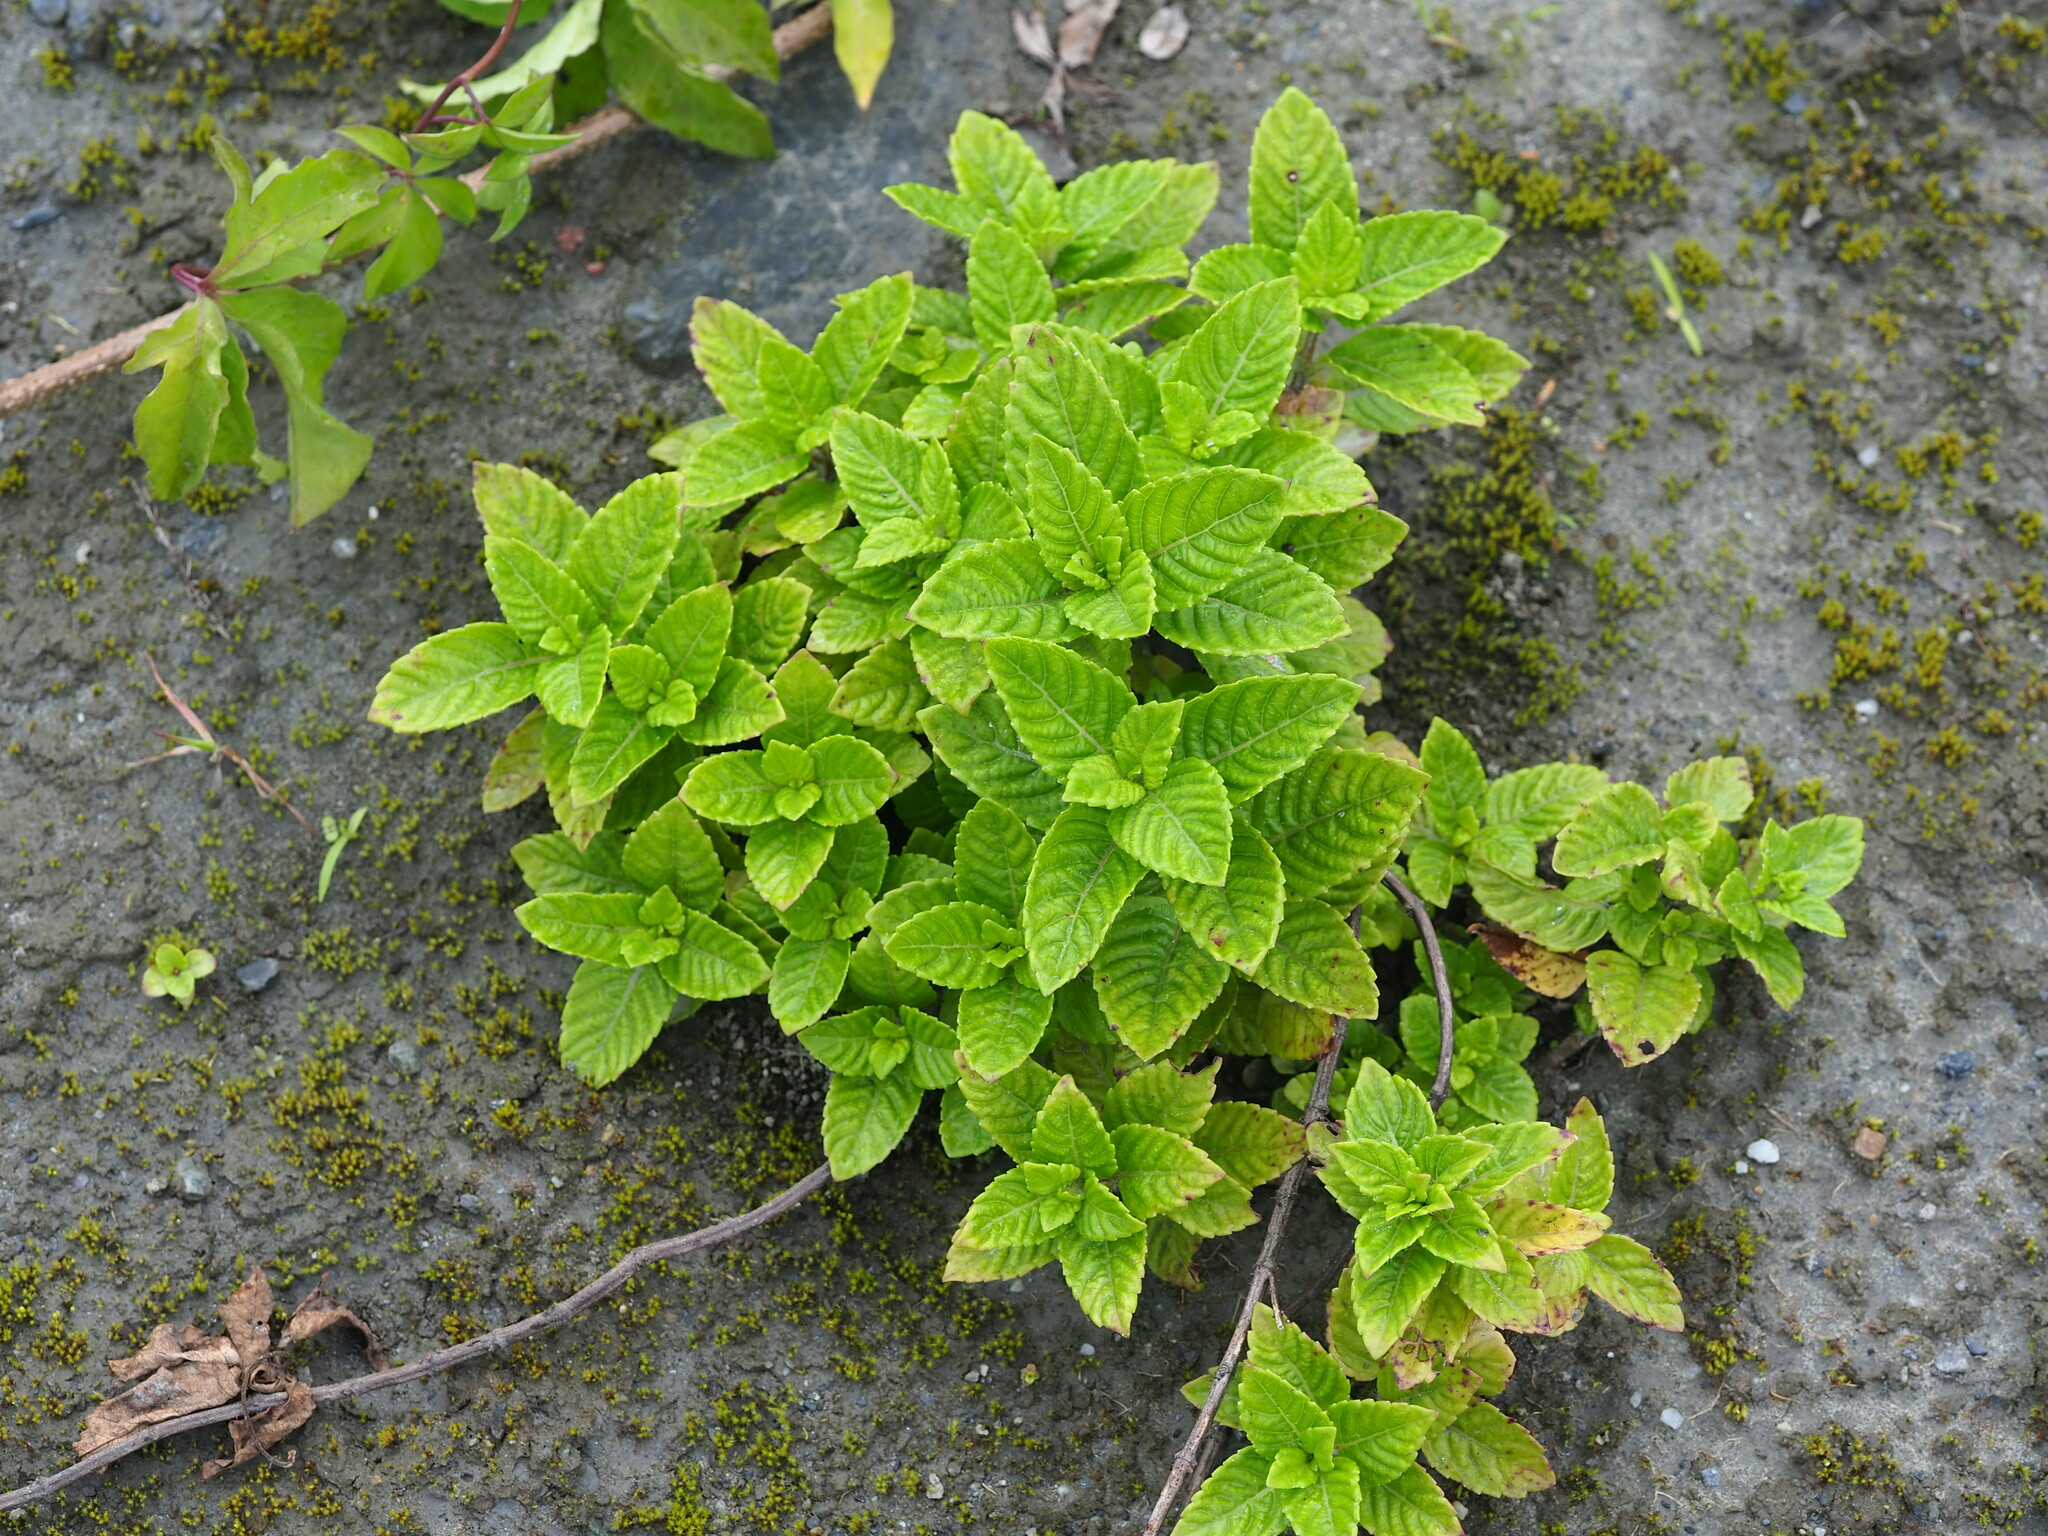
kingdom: Plantae
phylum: Tracheophyta
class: Magnoliopsida
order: Lamiales
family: Lamiaceae
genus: Platostoma
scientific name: Platostoma palustre
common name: Black cincau
